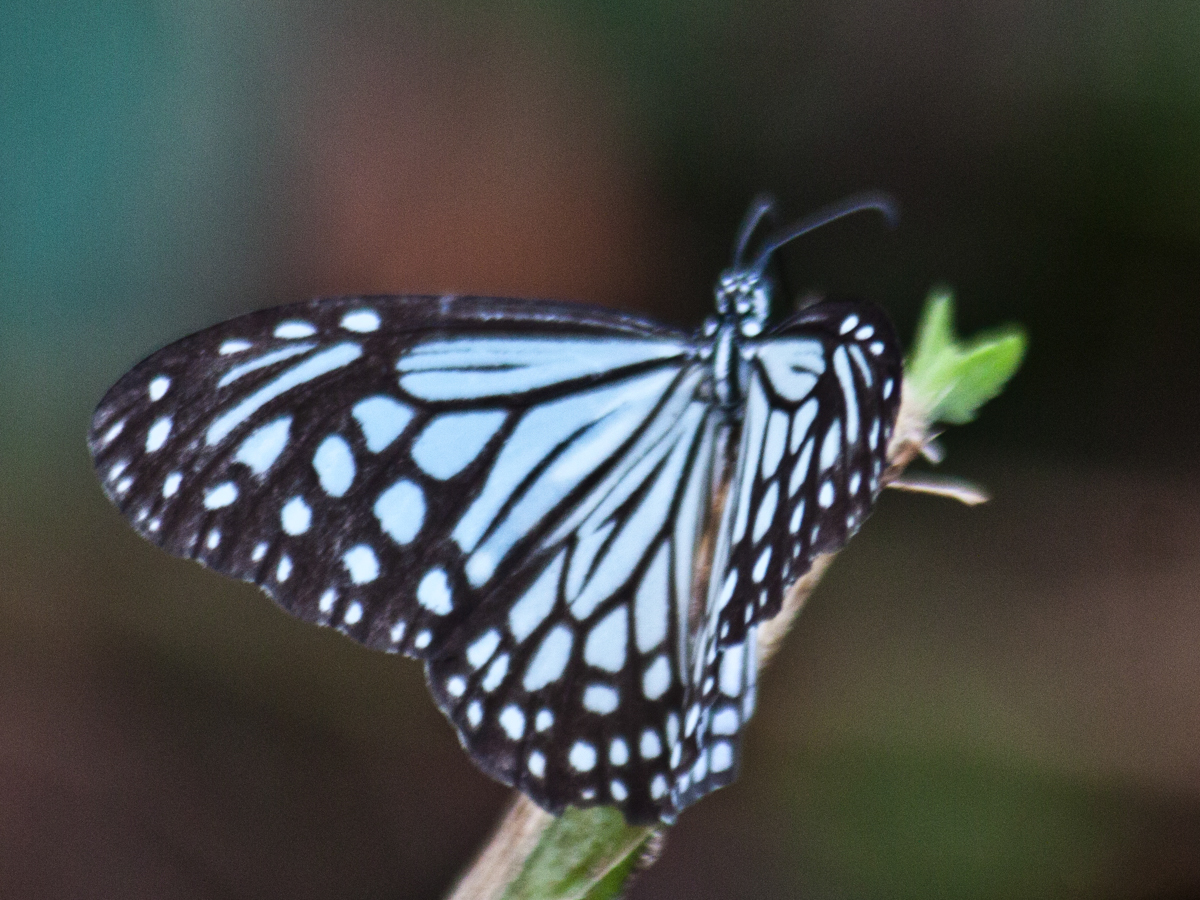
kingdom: Animalia
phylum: Arthropoda
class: Insecta
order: Lepidoptera
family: Nymphalidae
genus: Parantica
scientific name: Parantica aglea
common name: Glassy tiger
